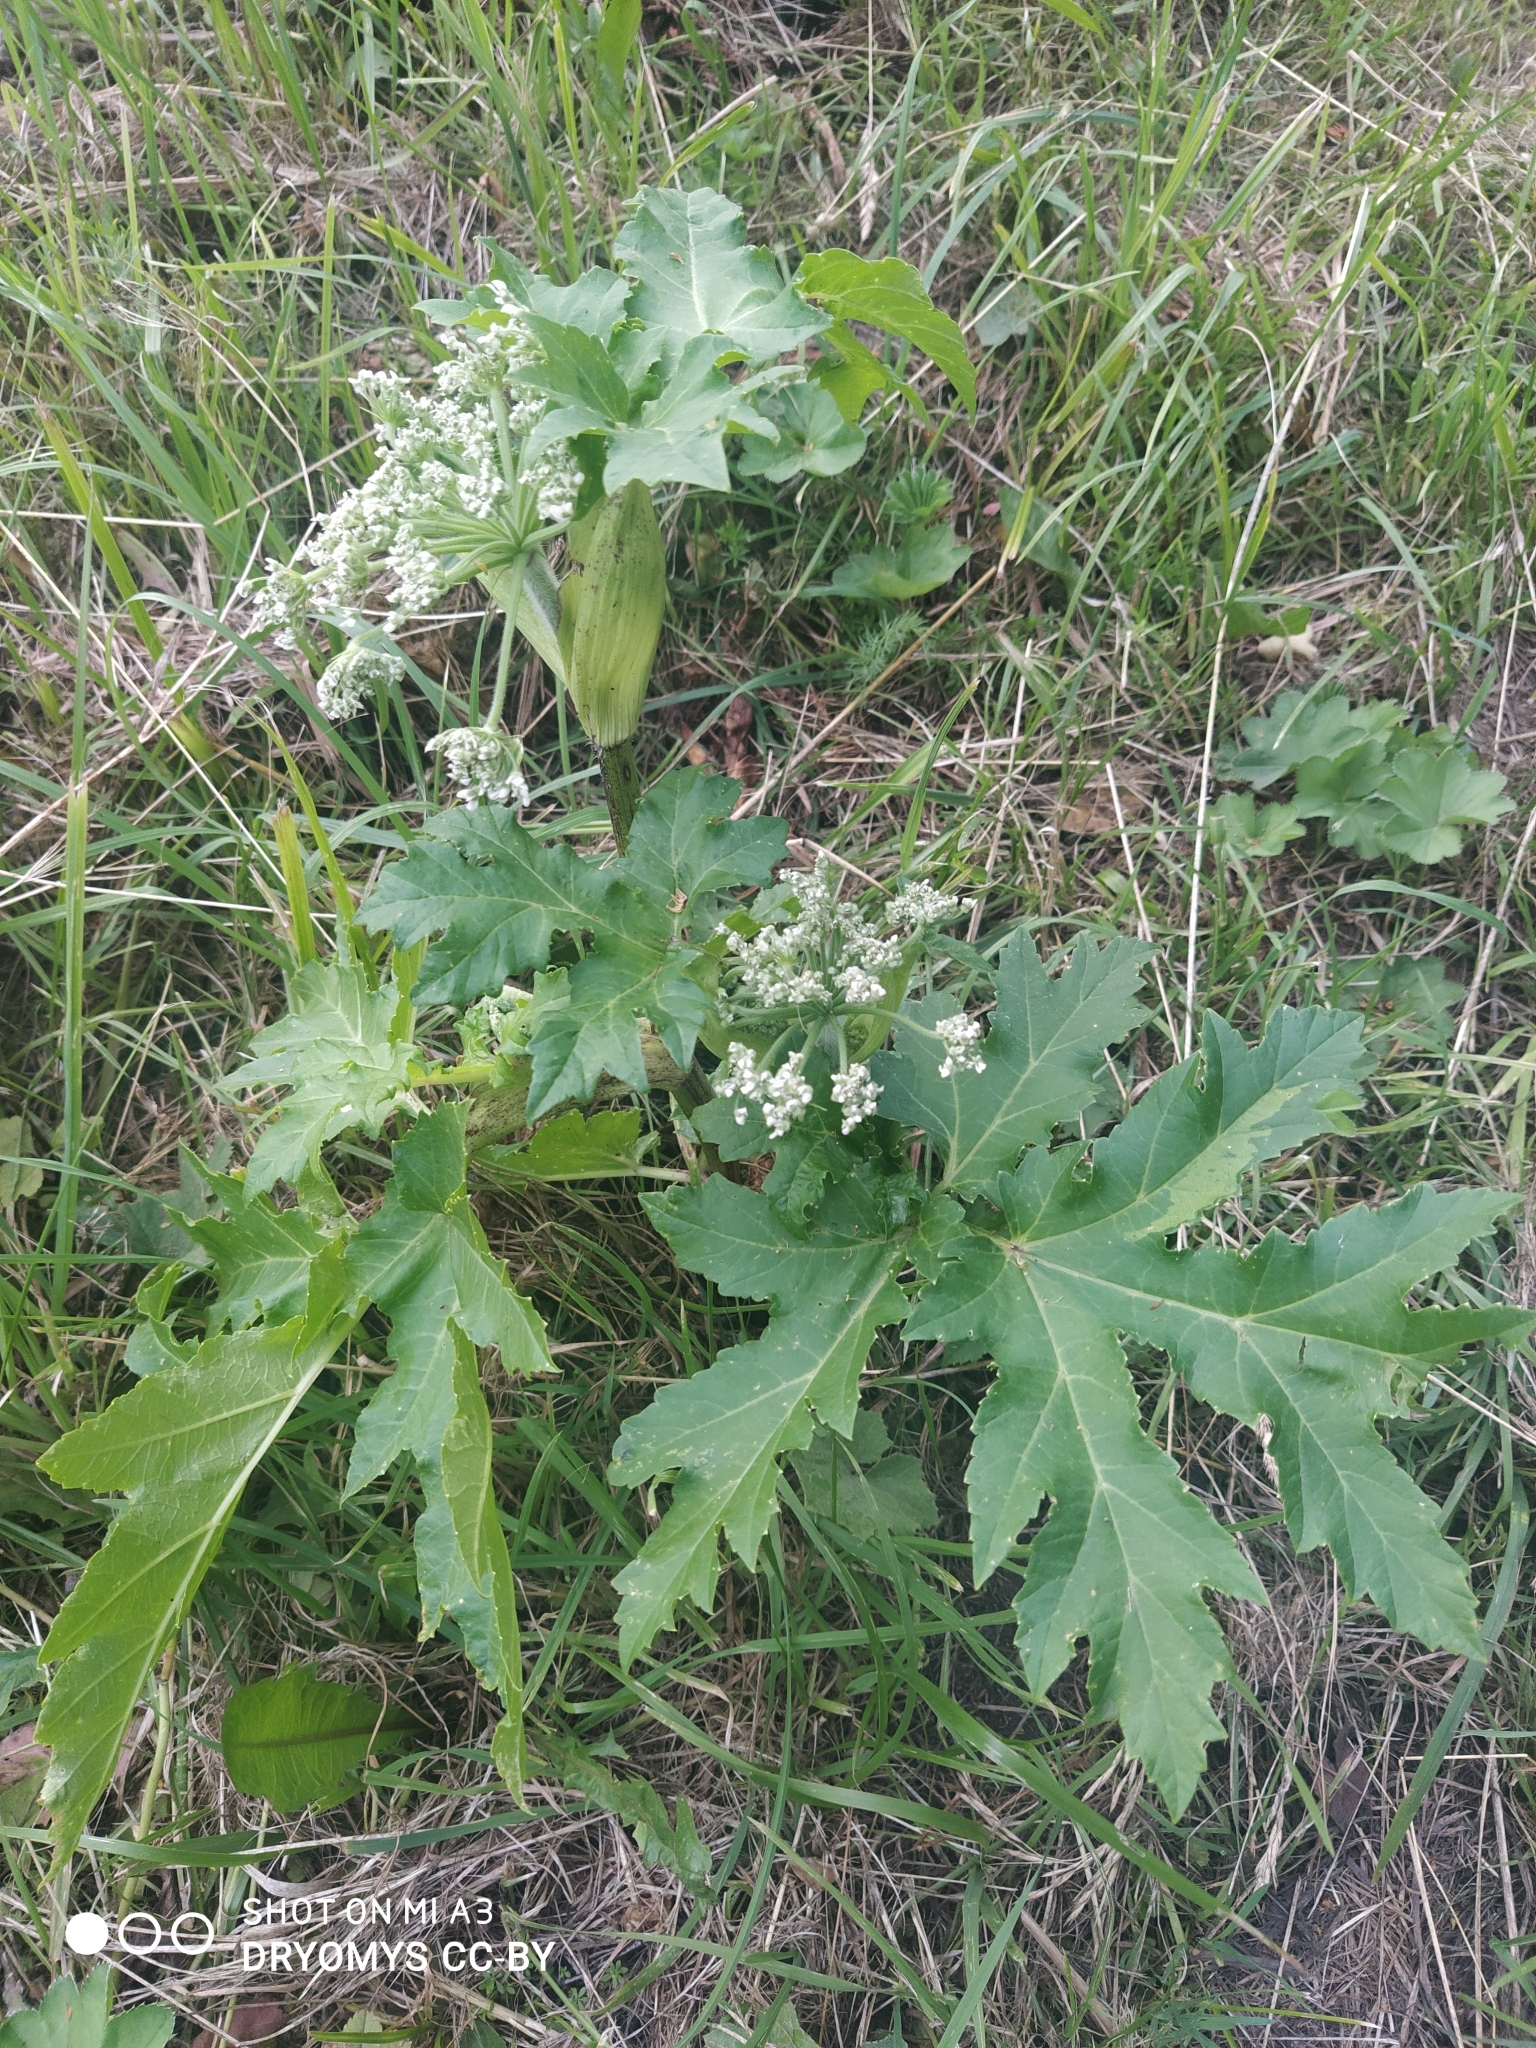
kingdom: Plantae
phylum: Tracheophyta
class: Magnoliopsida
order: Apiales
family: Apiaceae
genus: Heracleum
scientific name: Heracleum sosnowskyi
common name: Sosnowsky's hogweed
